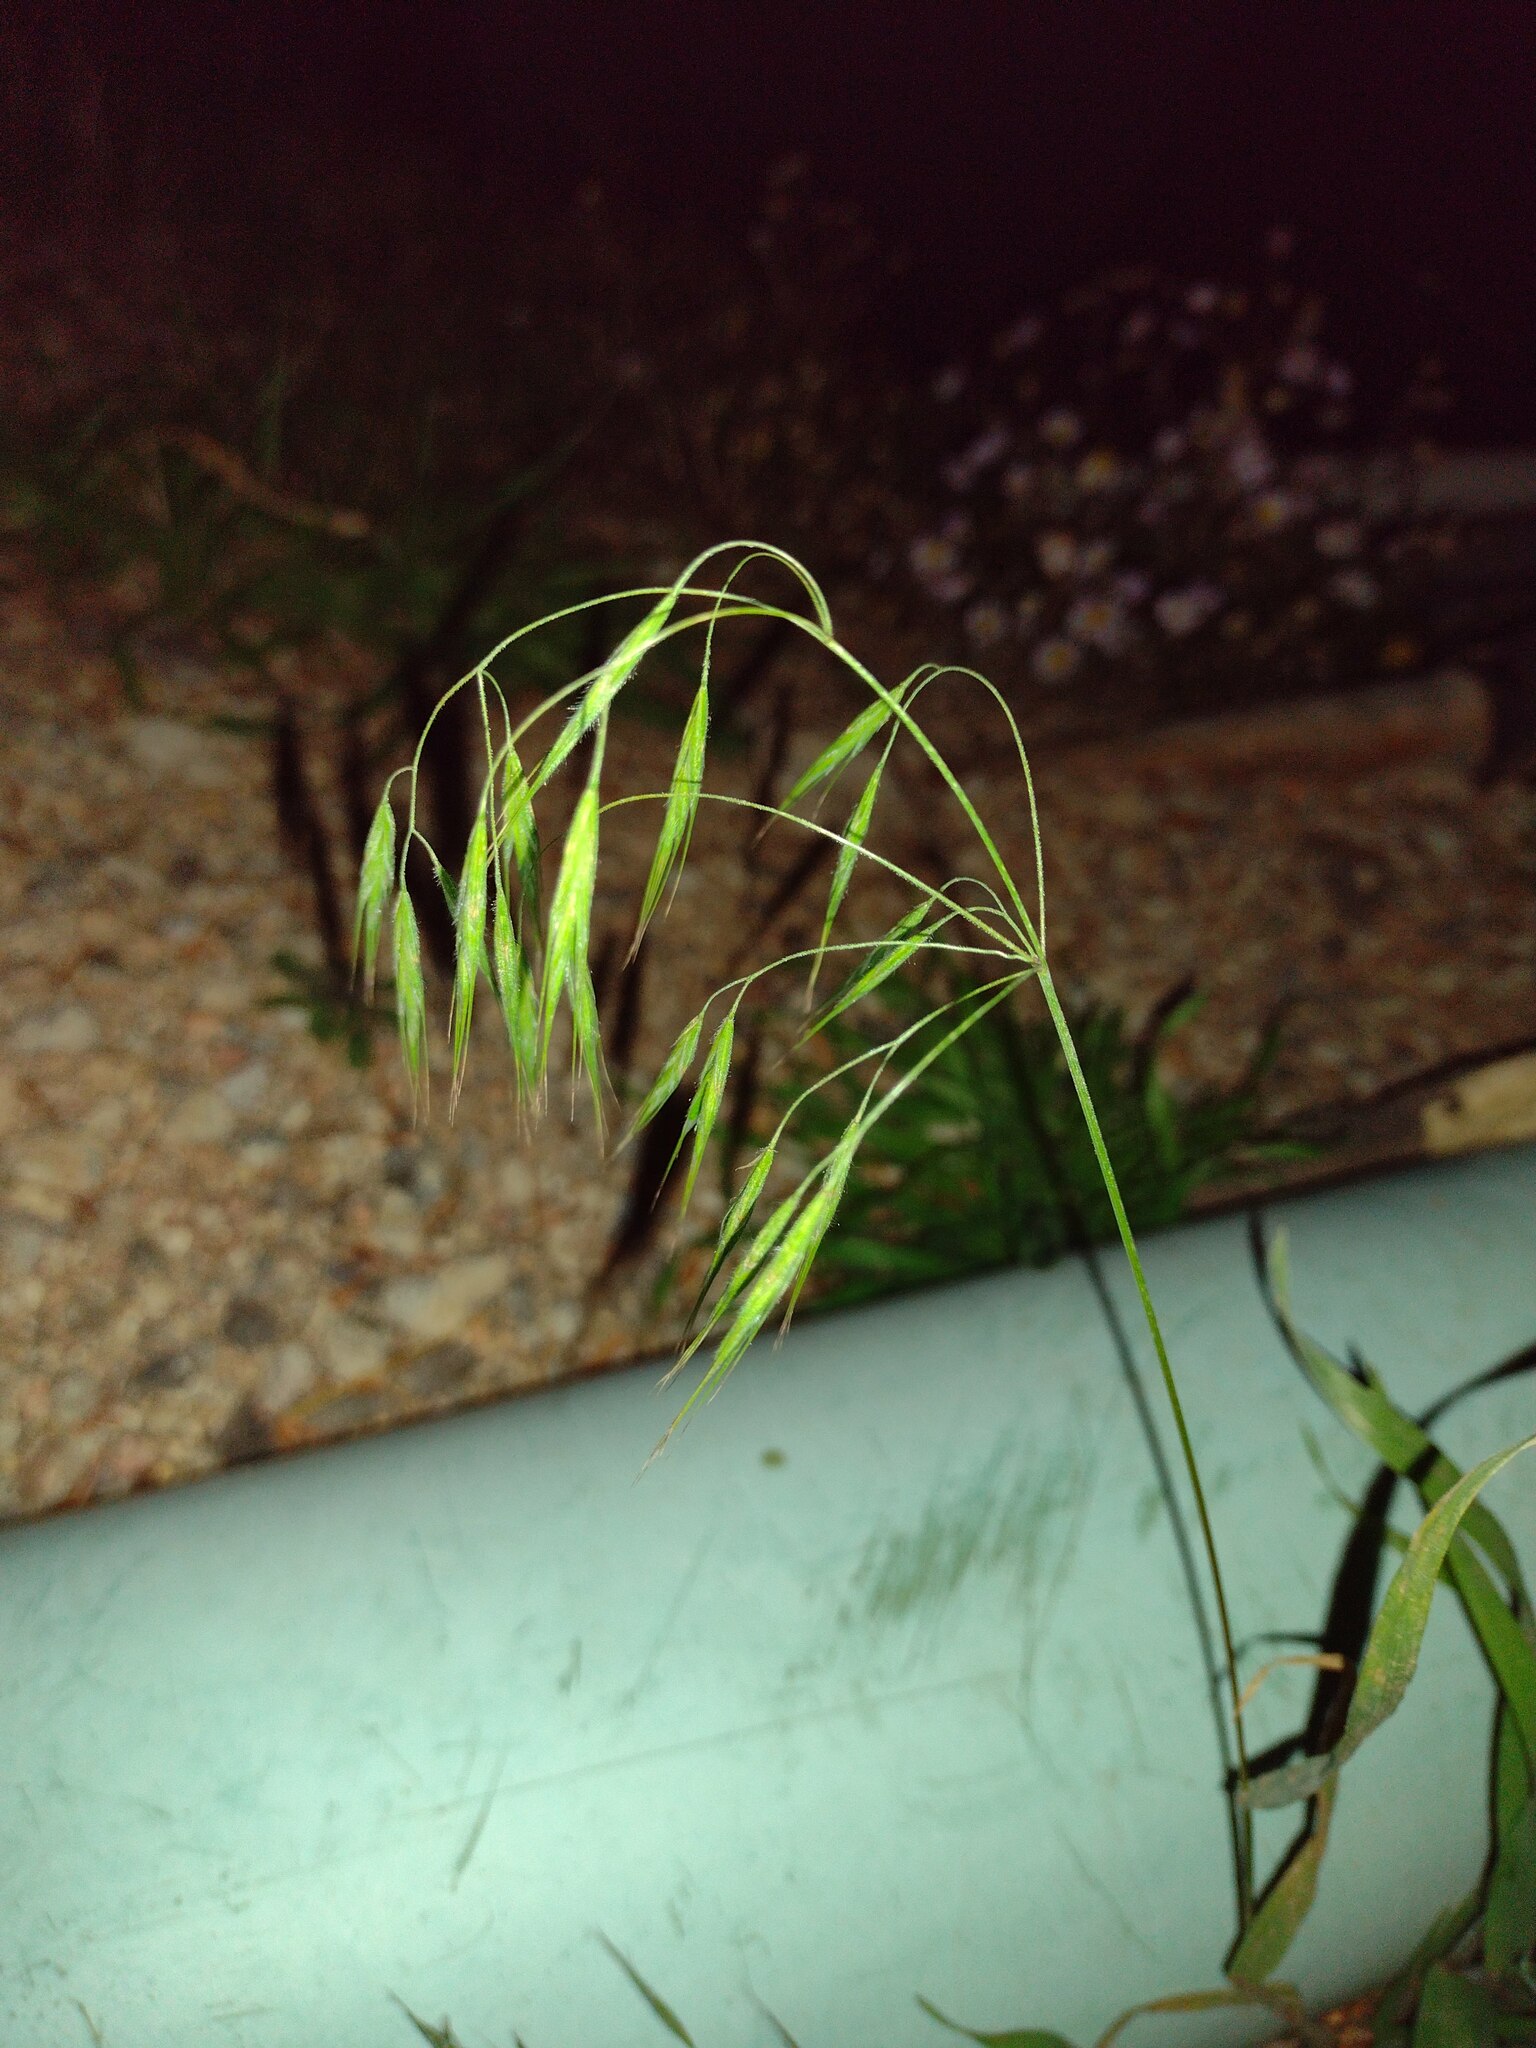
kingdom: Plantae
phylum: Tracheophyta
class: Liliopsida
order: Poales
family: Poaceae
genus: Bromus
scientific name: Bromus tectorum
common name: Cheatgrass
